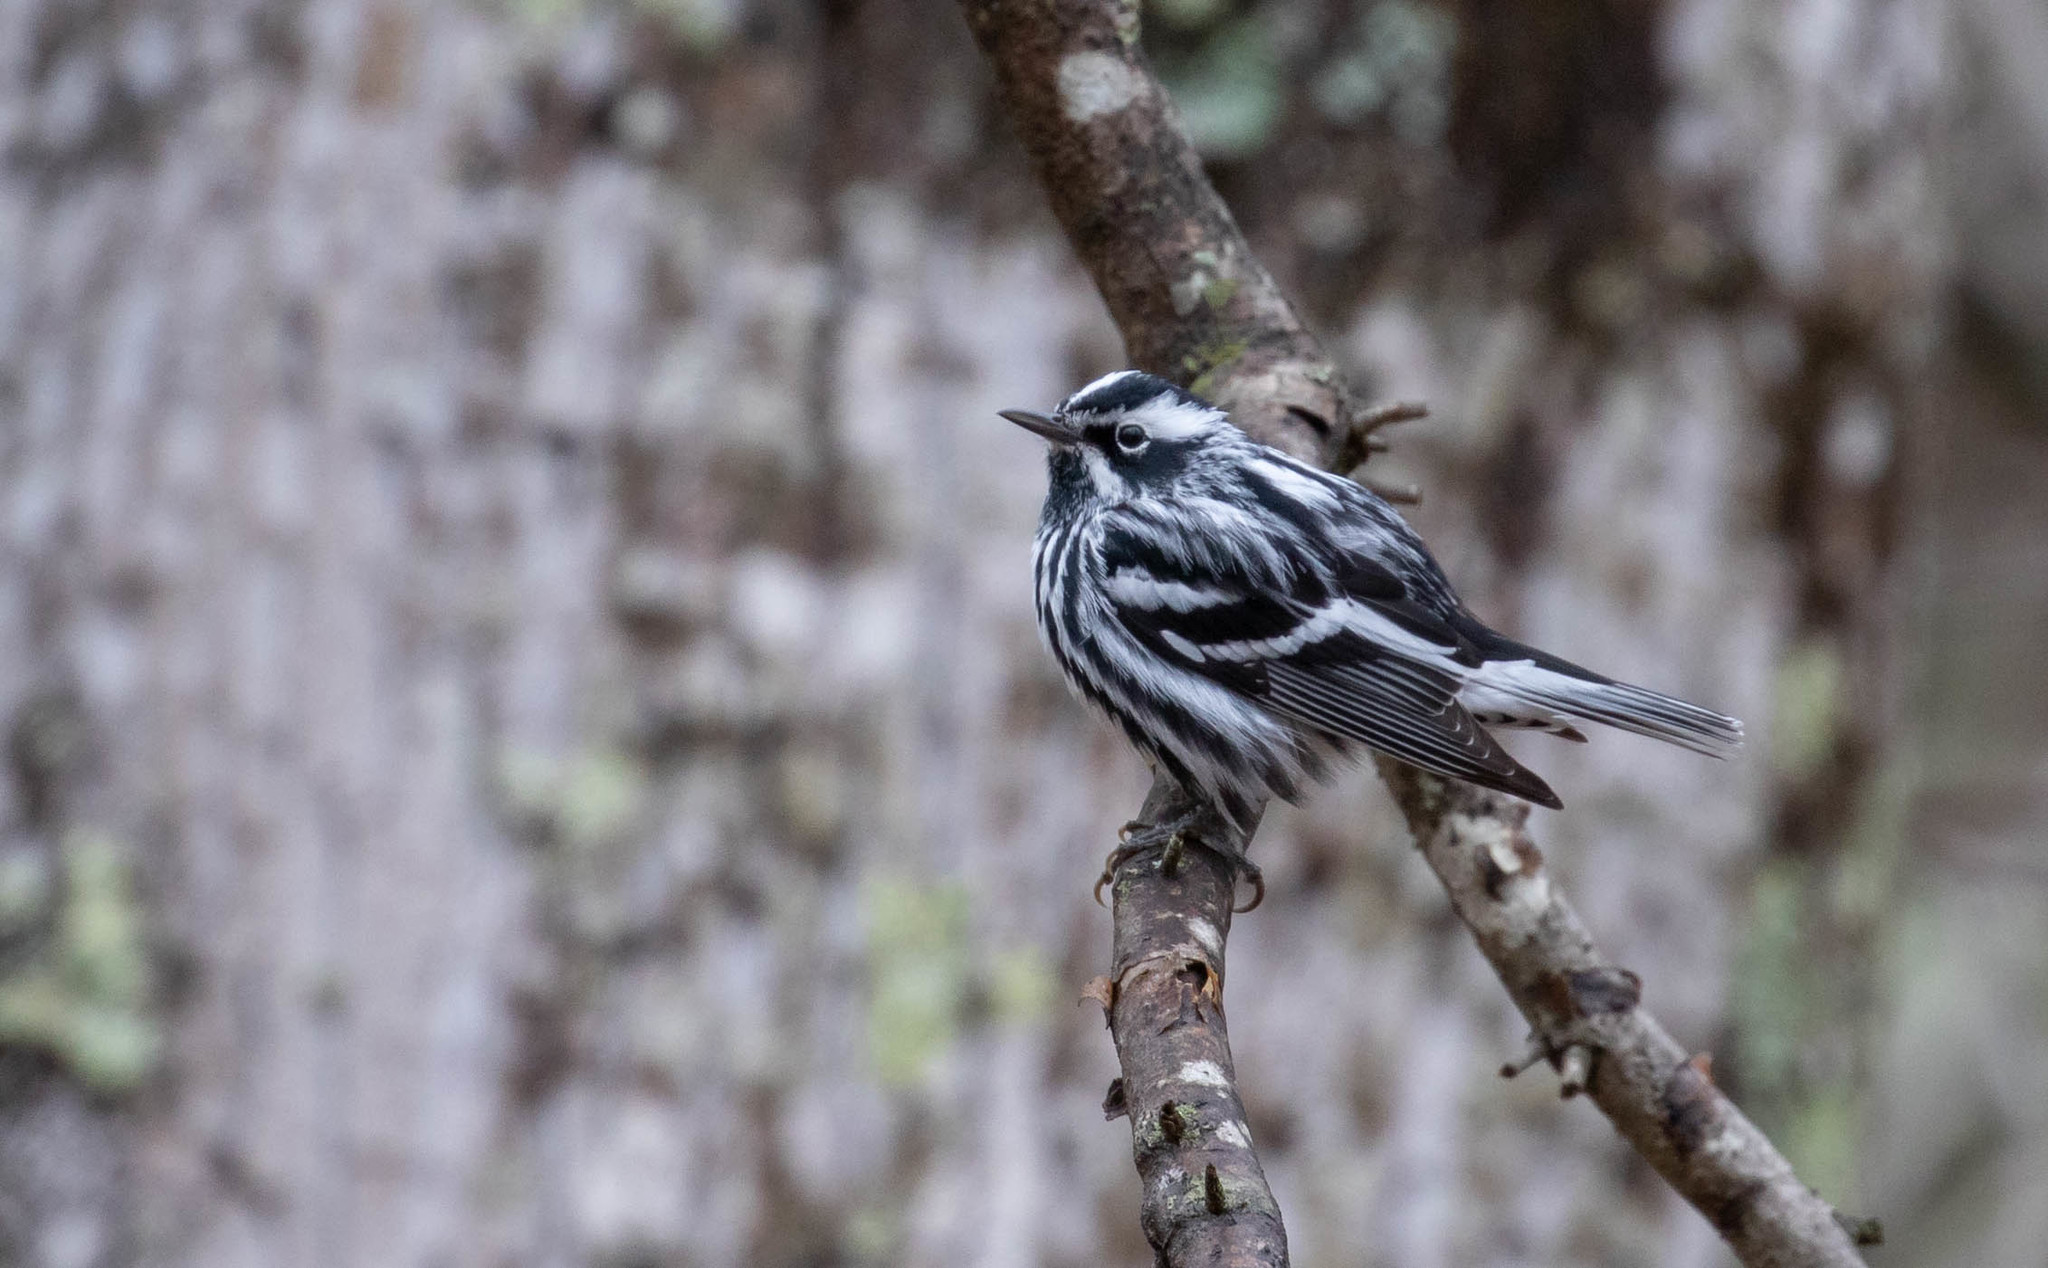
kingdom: Animalia
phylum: Chordata
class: Aves
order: Passeriformes
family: Parulidae
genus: Mniotilta
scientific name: Mniotilta varia
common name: Black-and-white warbler
